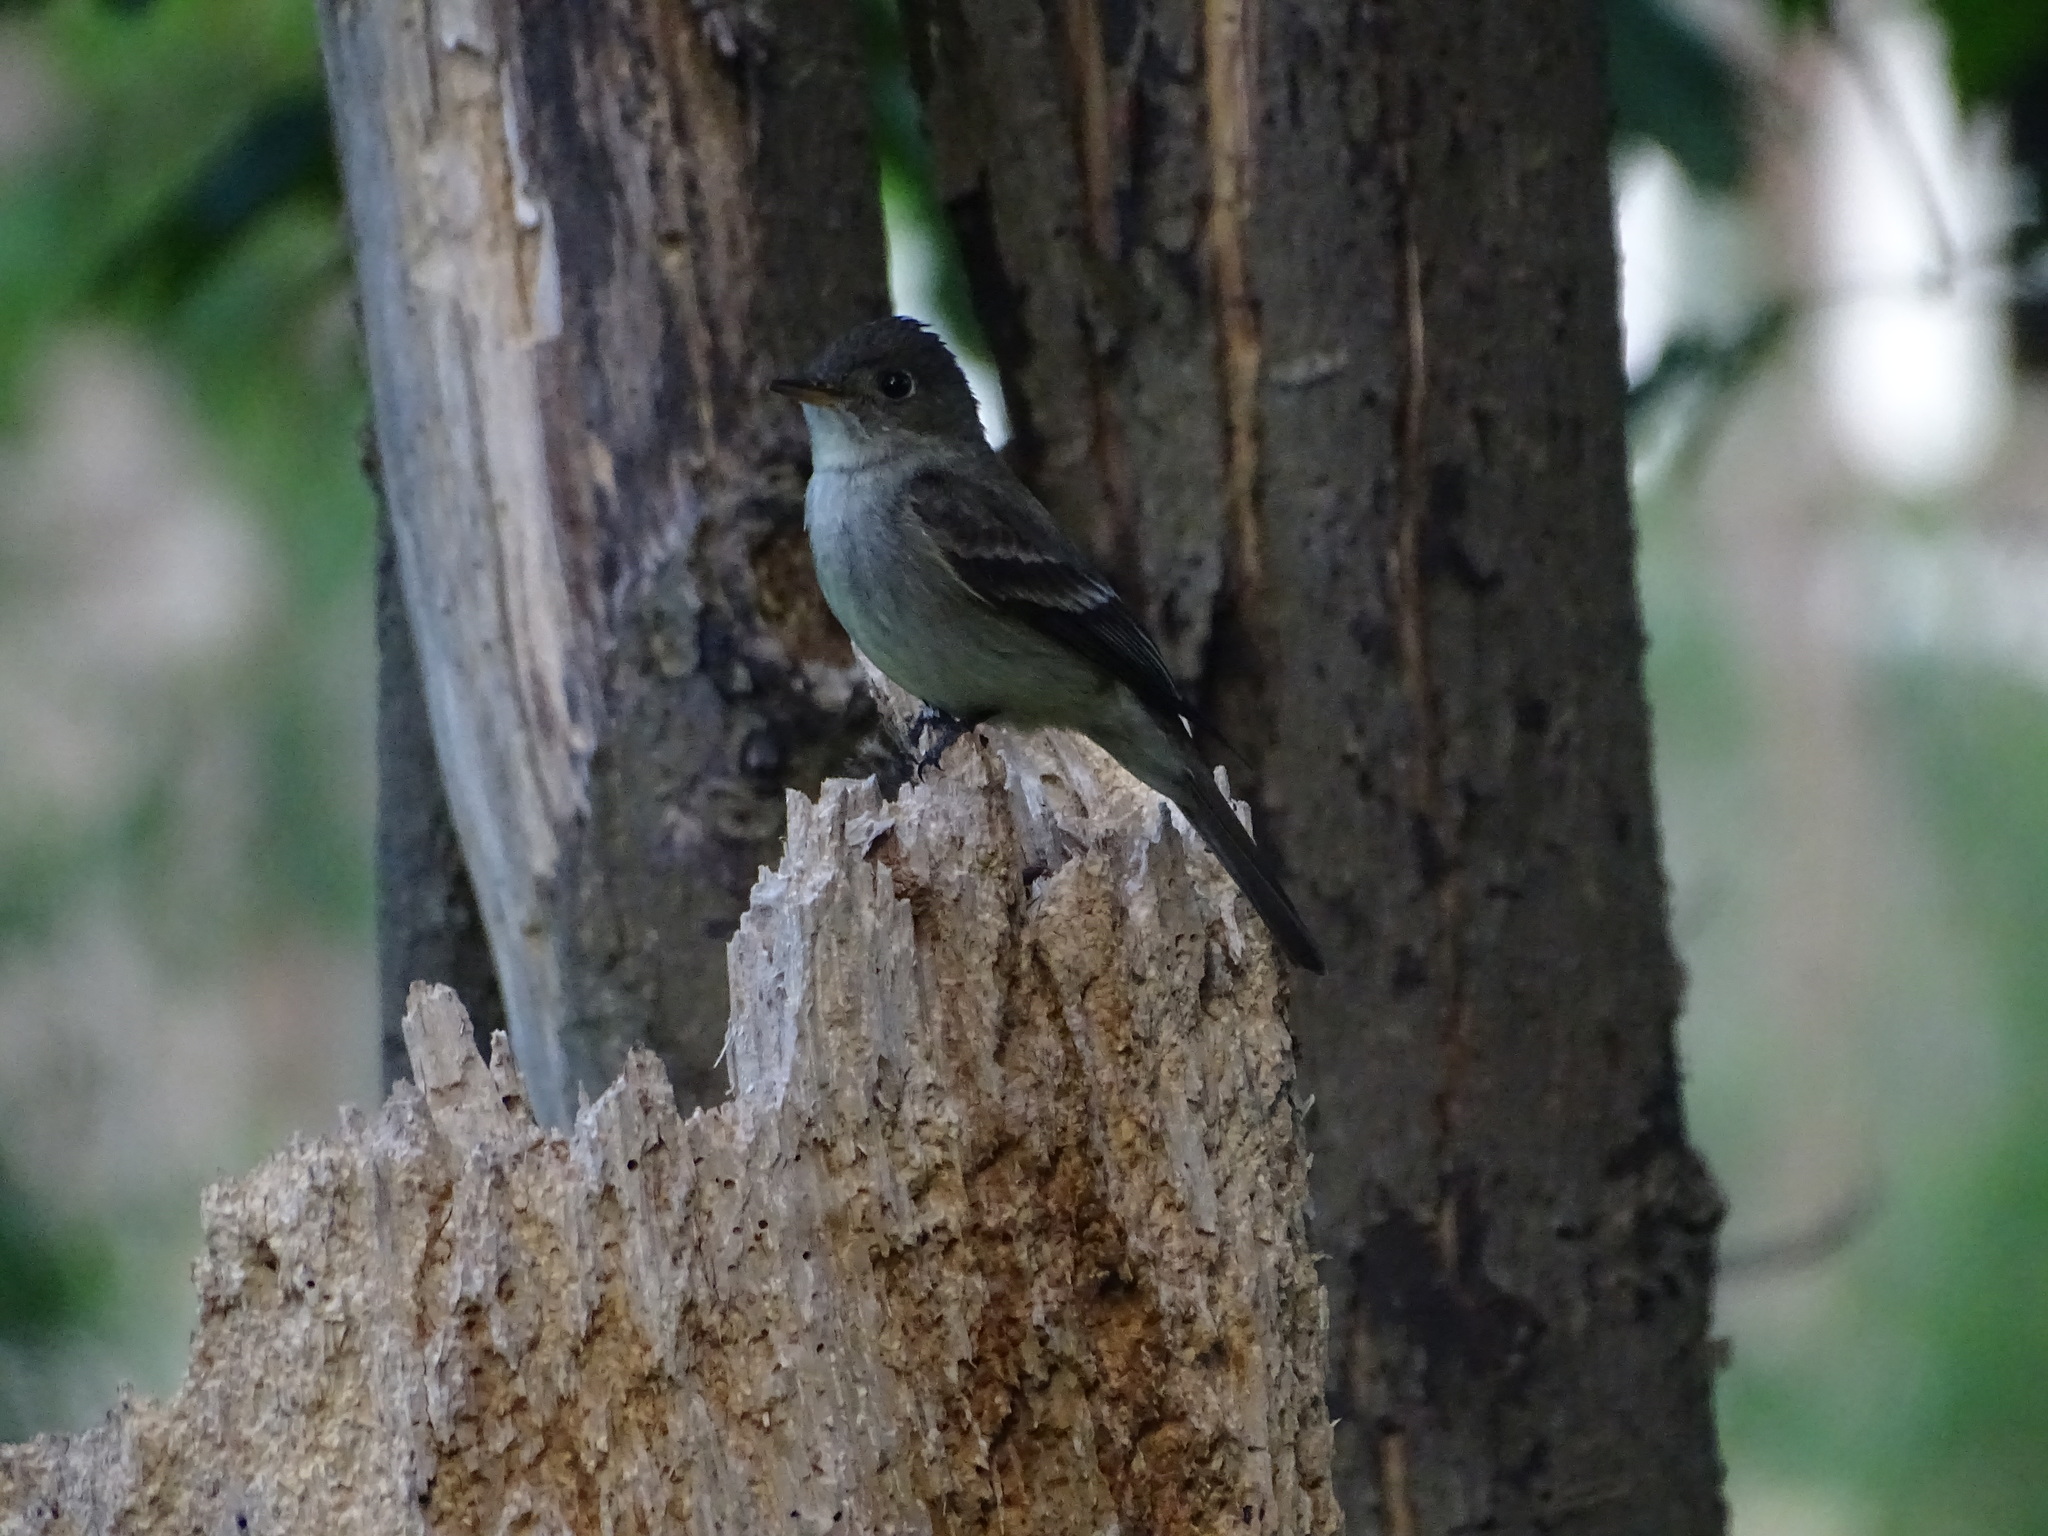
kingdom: Animalia
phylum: Chordata
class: Aves
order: Passeriformes
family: Tyrannidae
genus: Contopus
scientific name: Contopus virens
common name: Eastern wood-pewee
